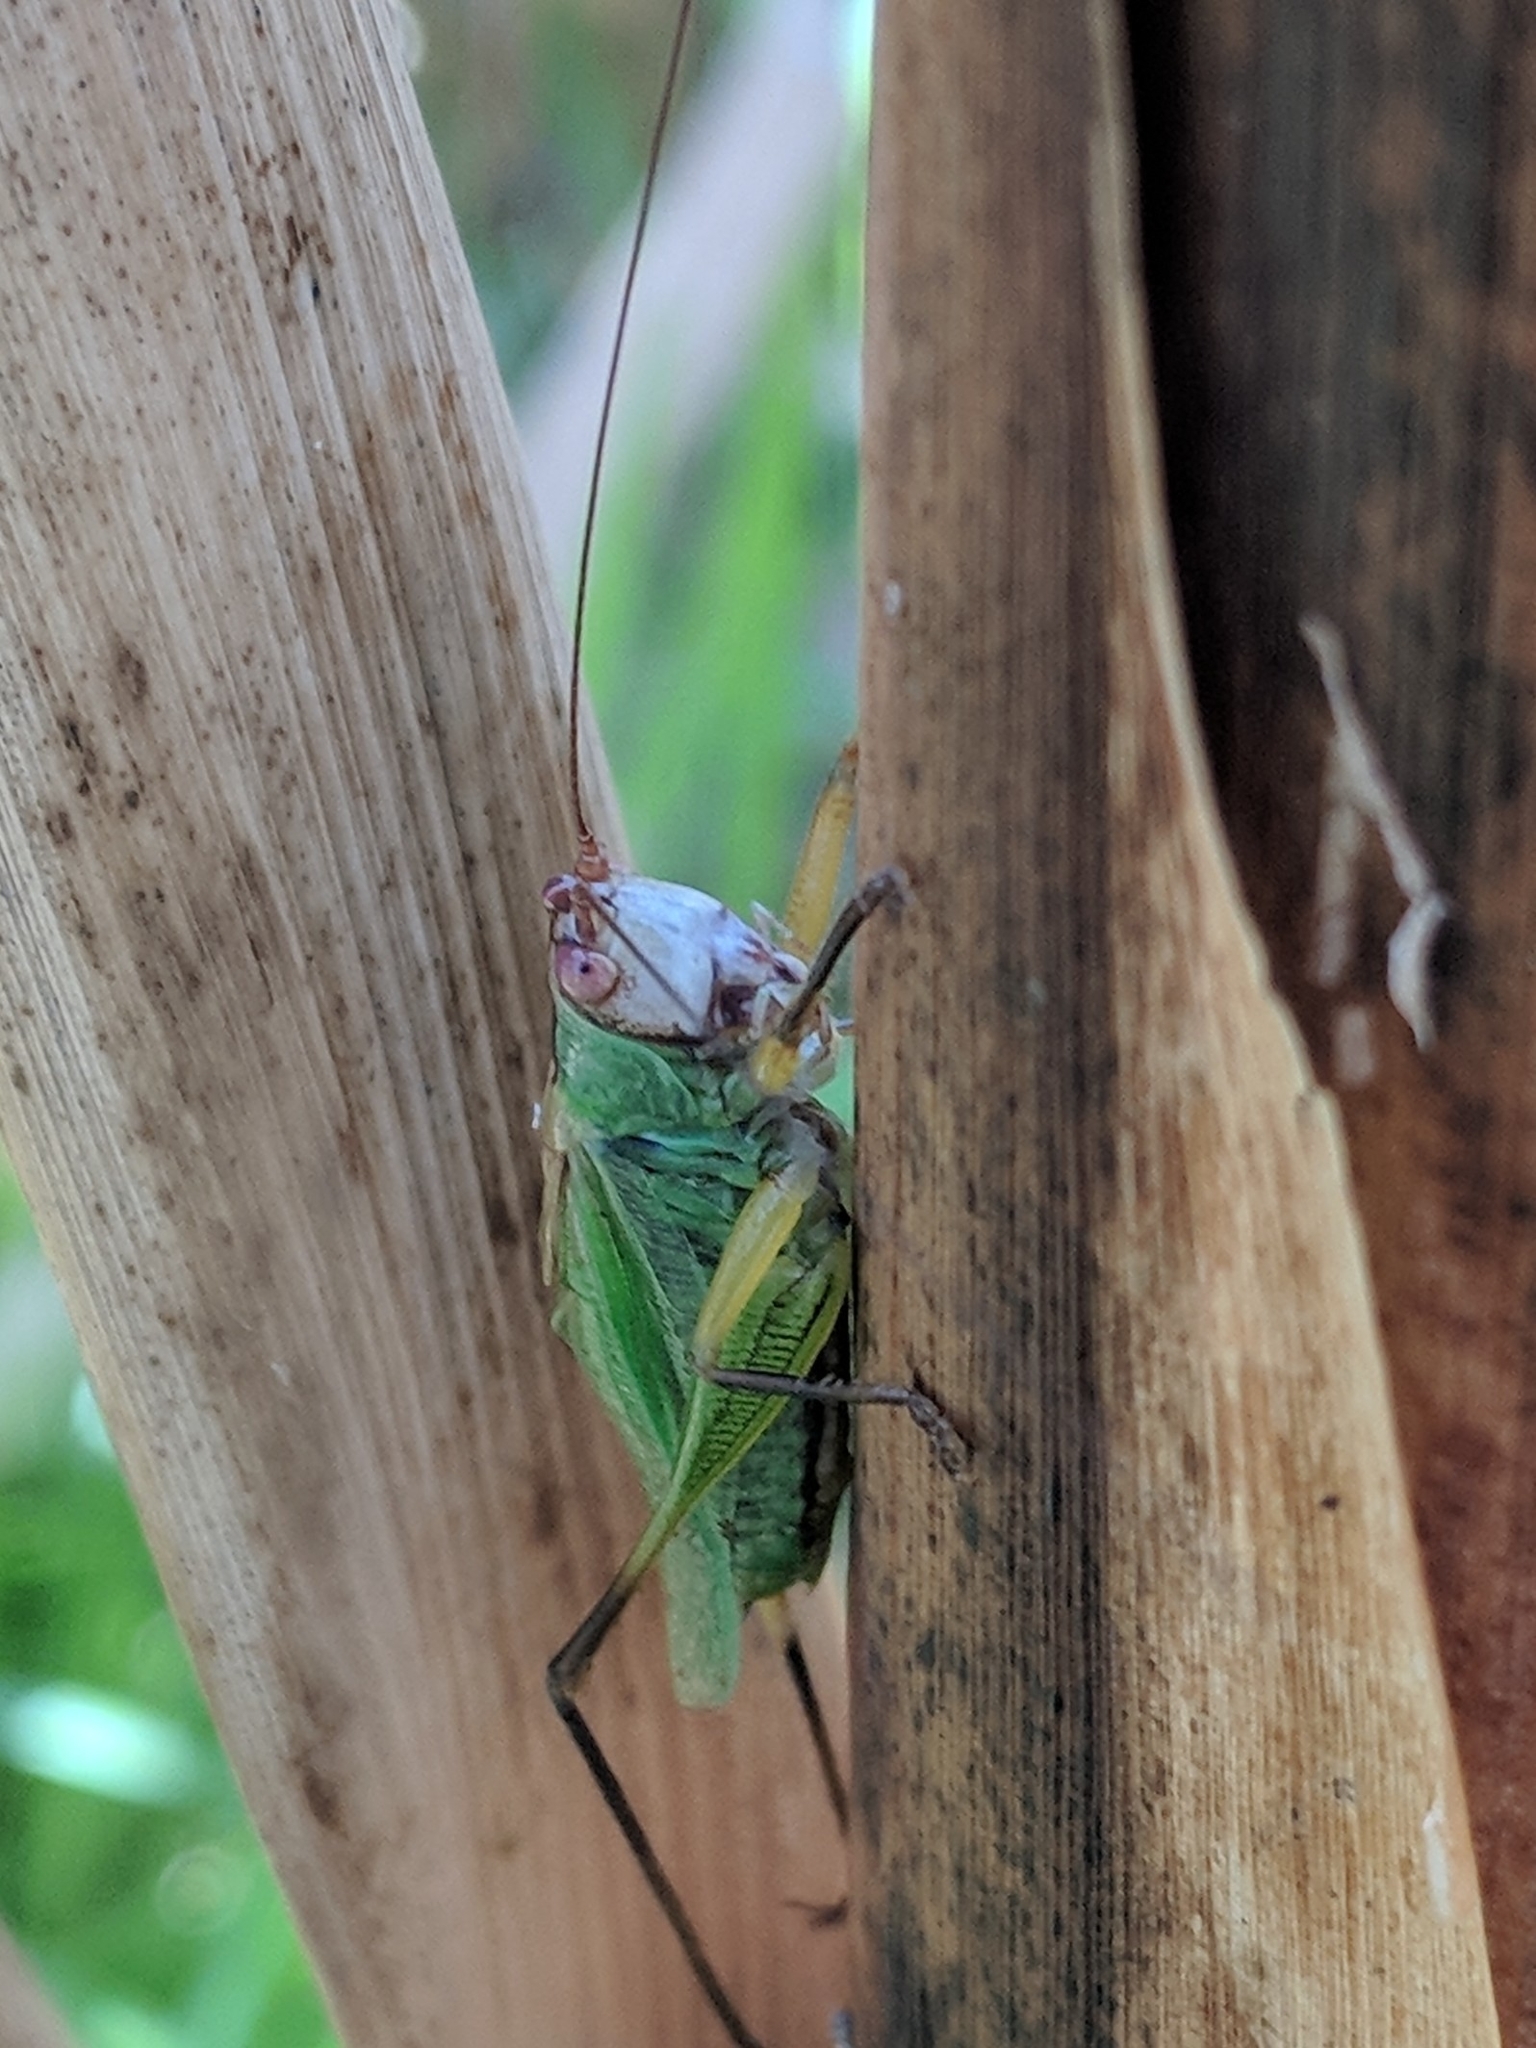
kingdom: Animalia
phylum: Arthropoda
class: Insecta
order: Orthoptera
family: Tettigoniidae
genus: Orchelimum
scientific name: Orchelimum nigripes
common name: Black-legged meadow katydid
